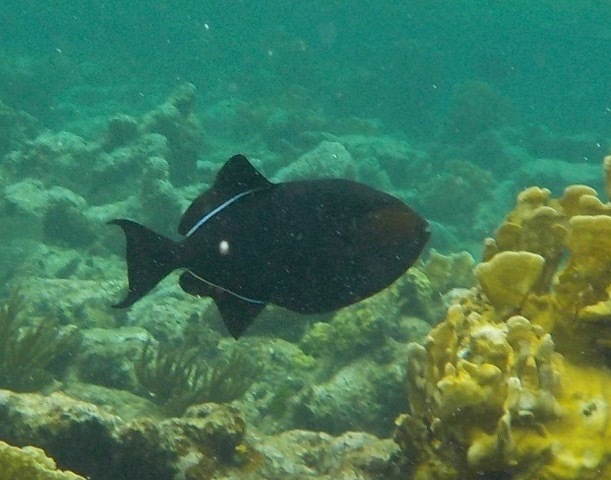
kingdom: Animalia
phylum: Chordata
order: Tetraodontiformes
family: Balistidae
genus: Melichthys
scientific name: Melichthys niger
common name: Black durgon
